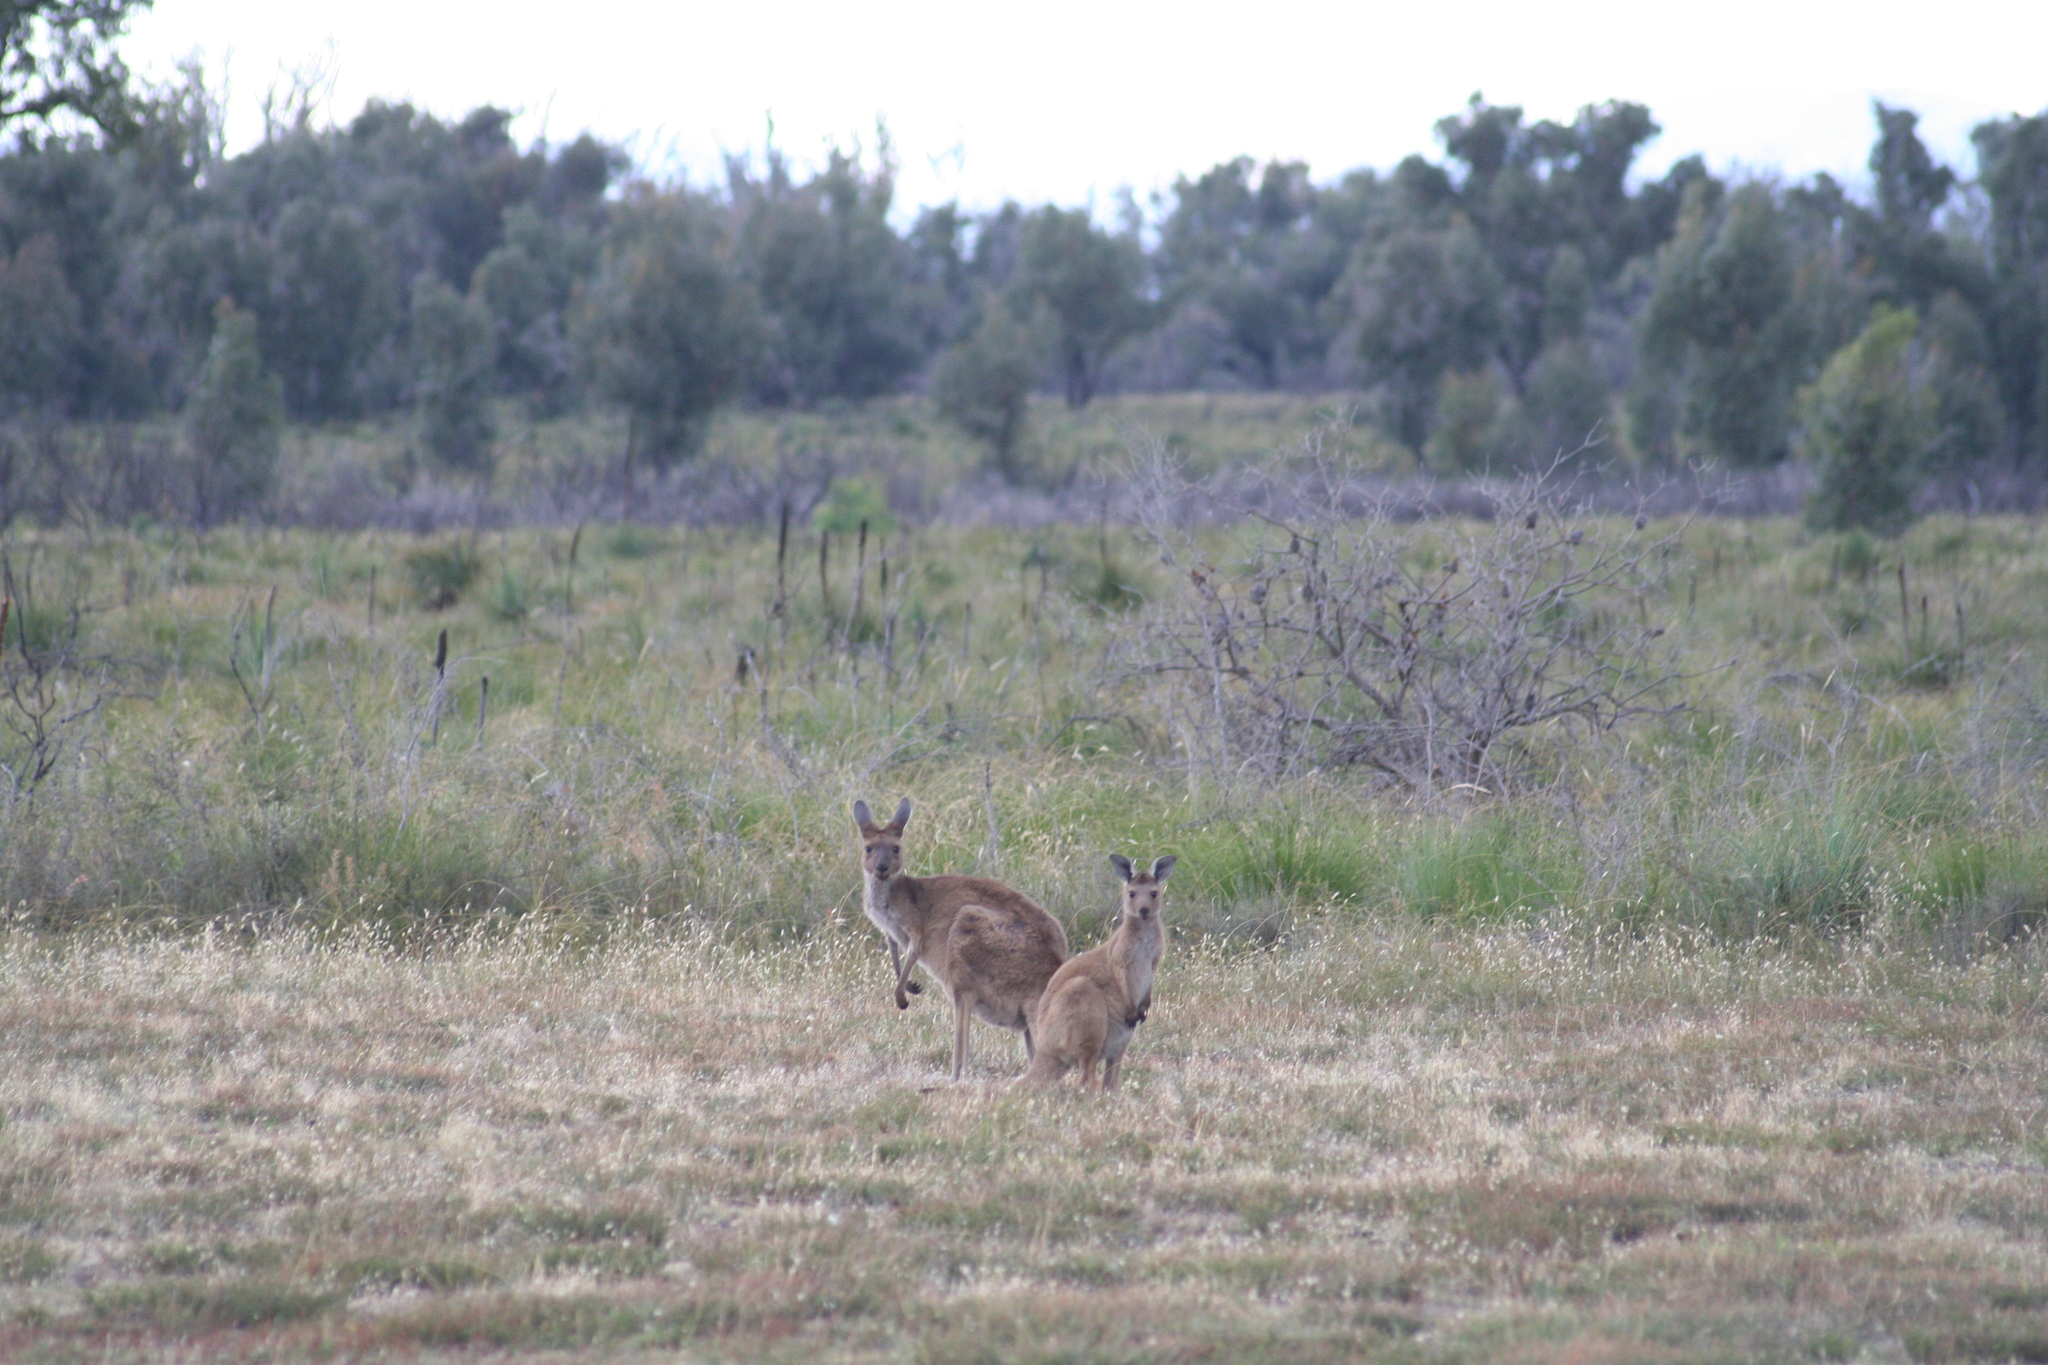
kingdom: Animalia
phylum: Chordata
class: Mammalia
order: Diprotodontia
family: Macropodidae
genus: Macropus
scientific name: Macropus fuliginosus
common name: Western grey kangaroo
